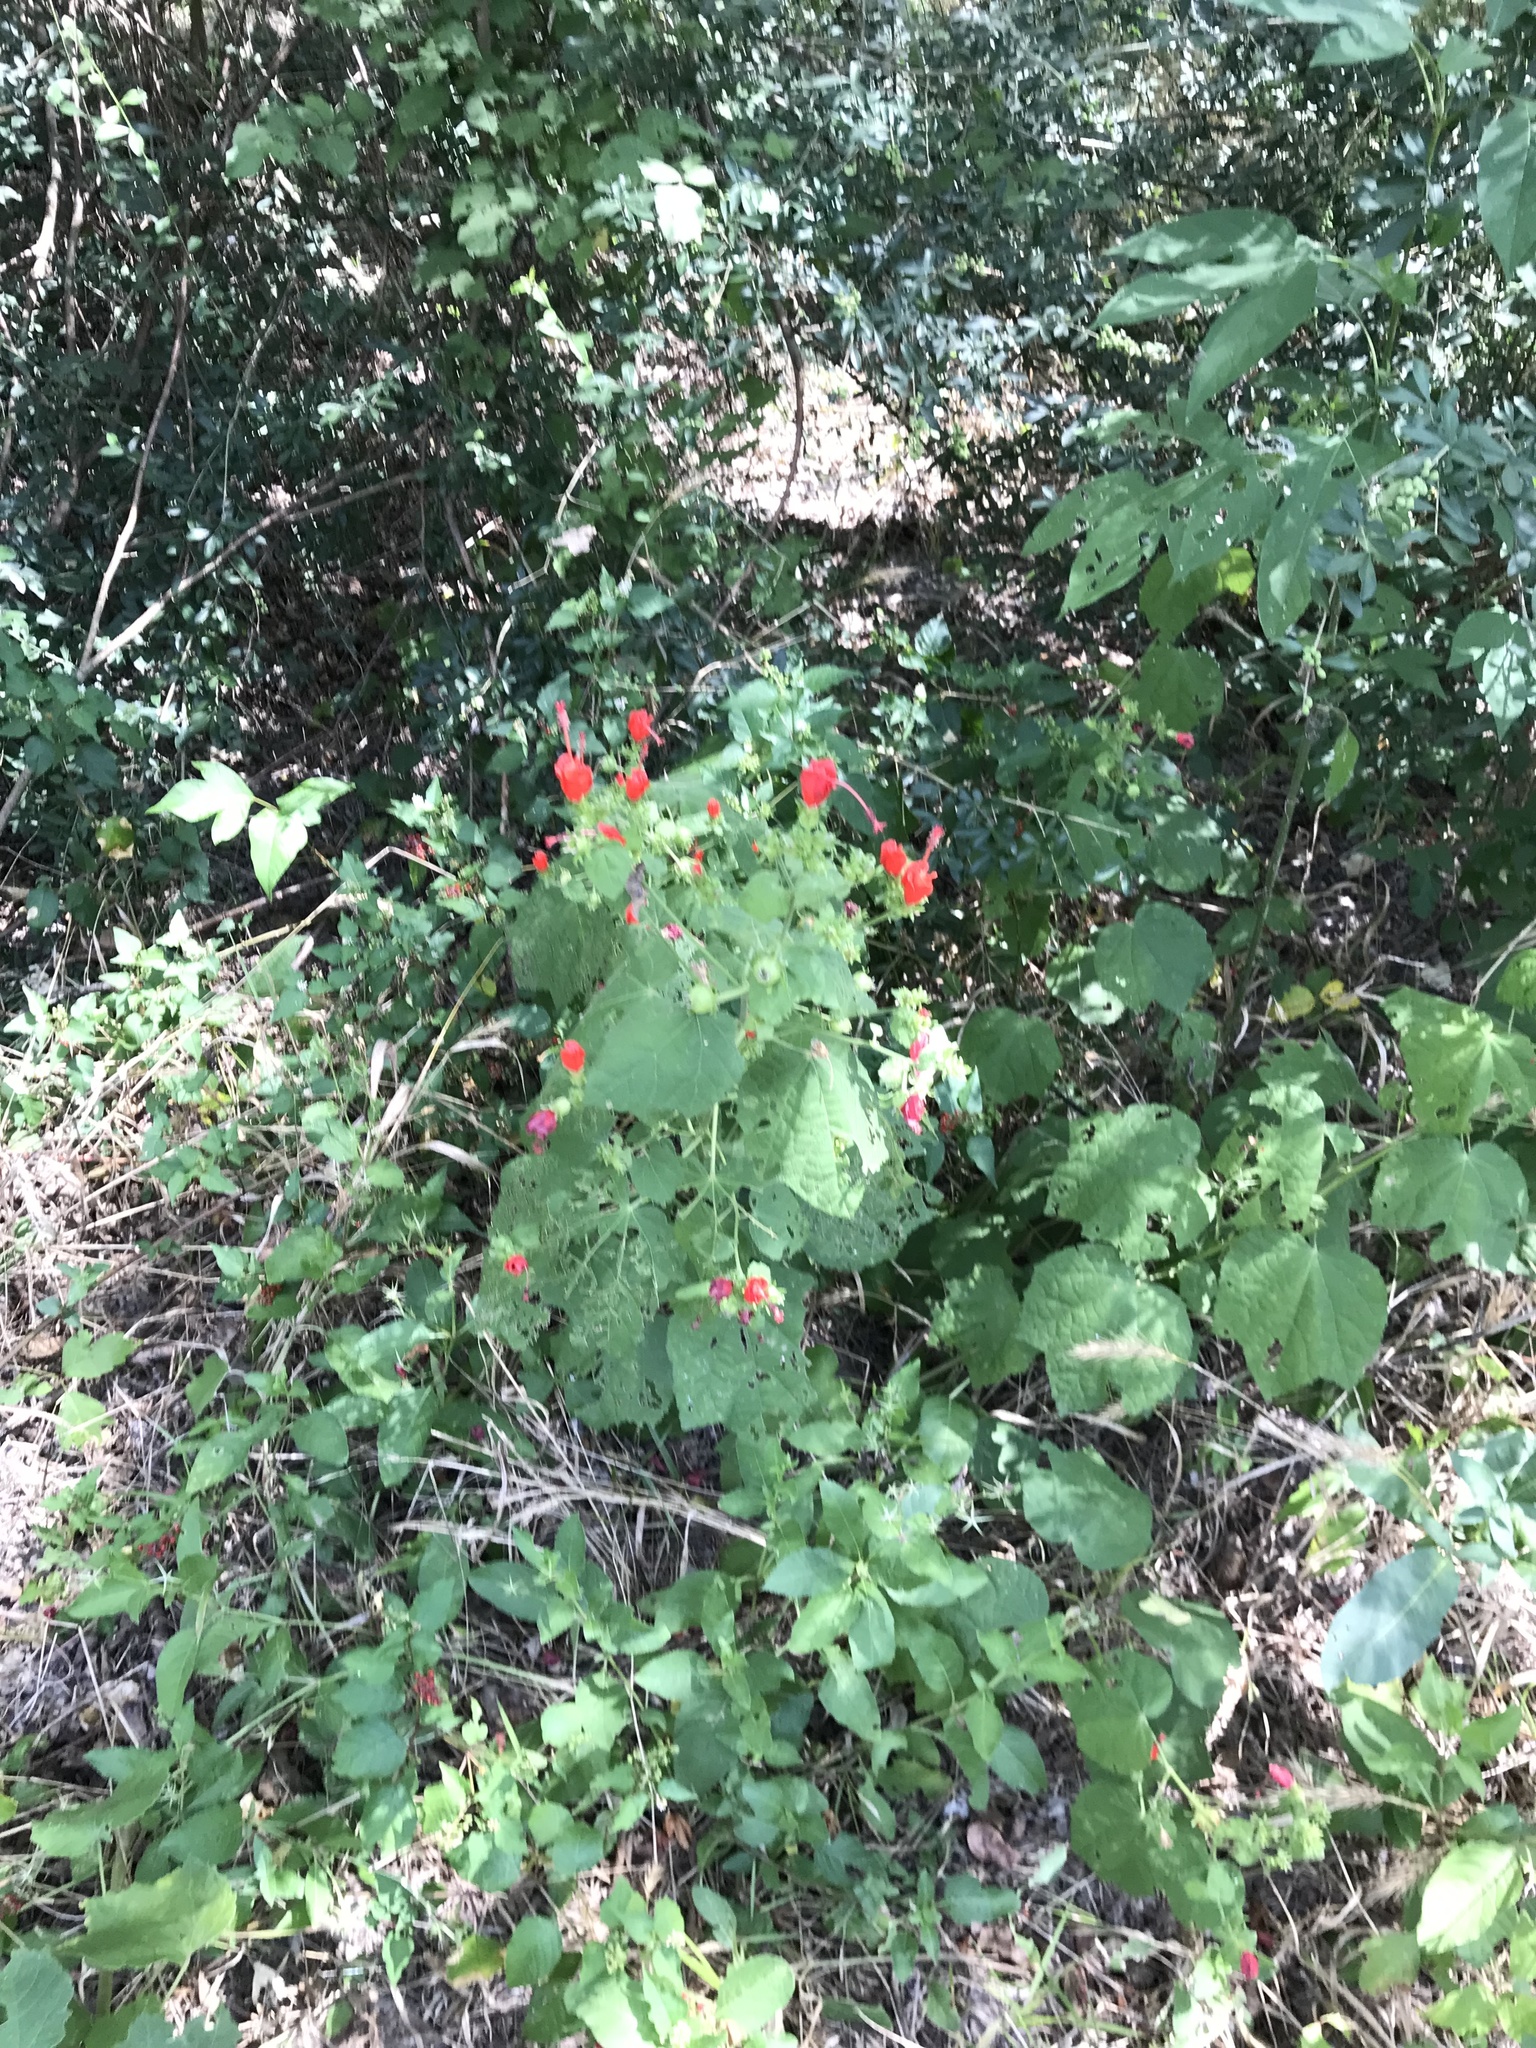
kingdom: Plantae
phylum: Tracheophyta
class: Magnoliopsida
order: Malvales
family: Malvaceae
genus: Malvaviscus
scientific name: Malvaviscus arboreus
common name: Wax mallow
